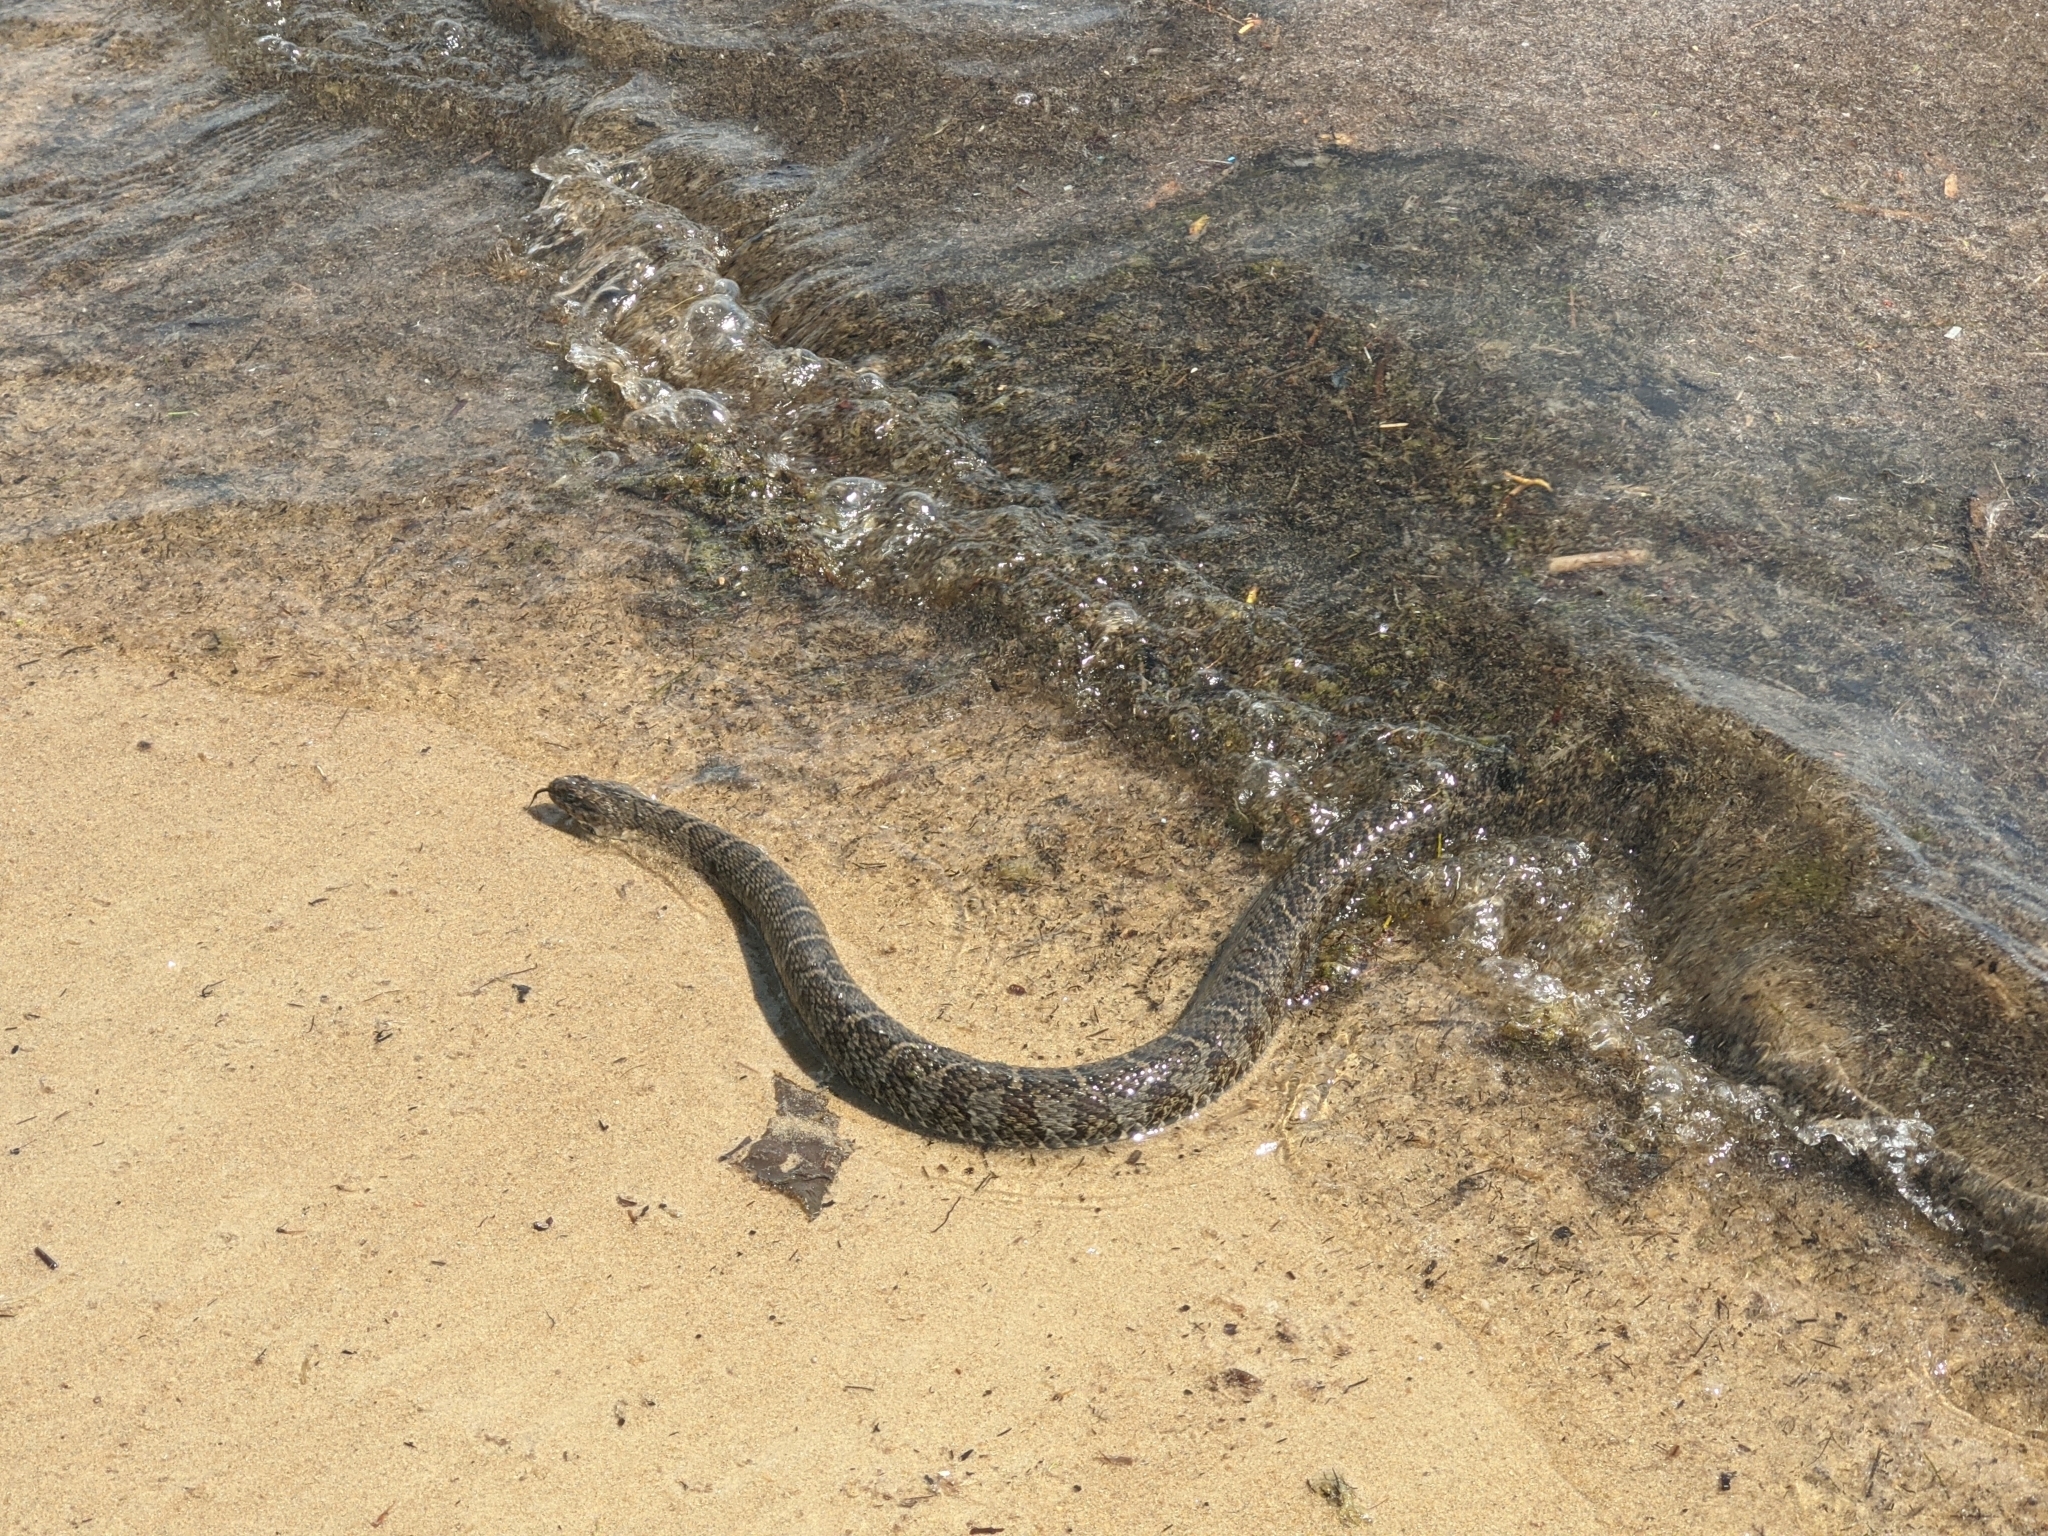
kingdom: Animalia
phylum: Chordata
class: Squamata
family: Colubridae
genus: Nerodia
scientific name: Nerodia sipedon
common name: Northern water snake
